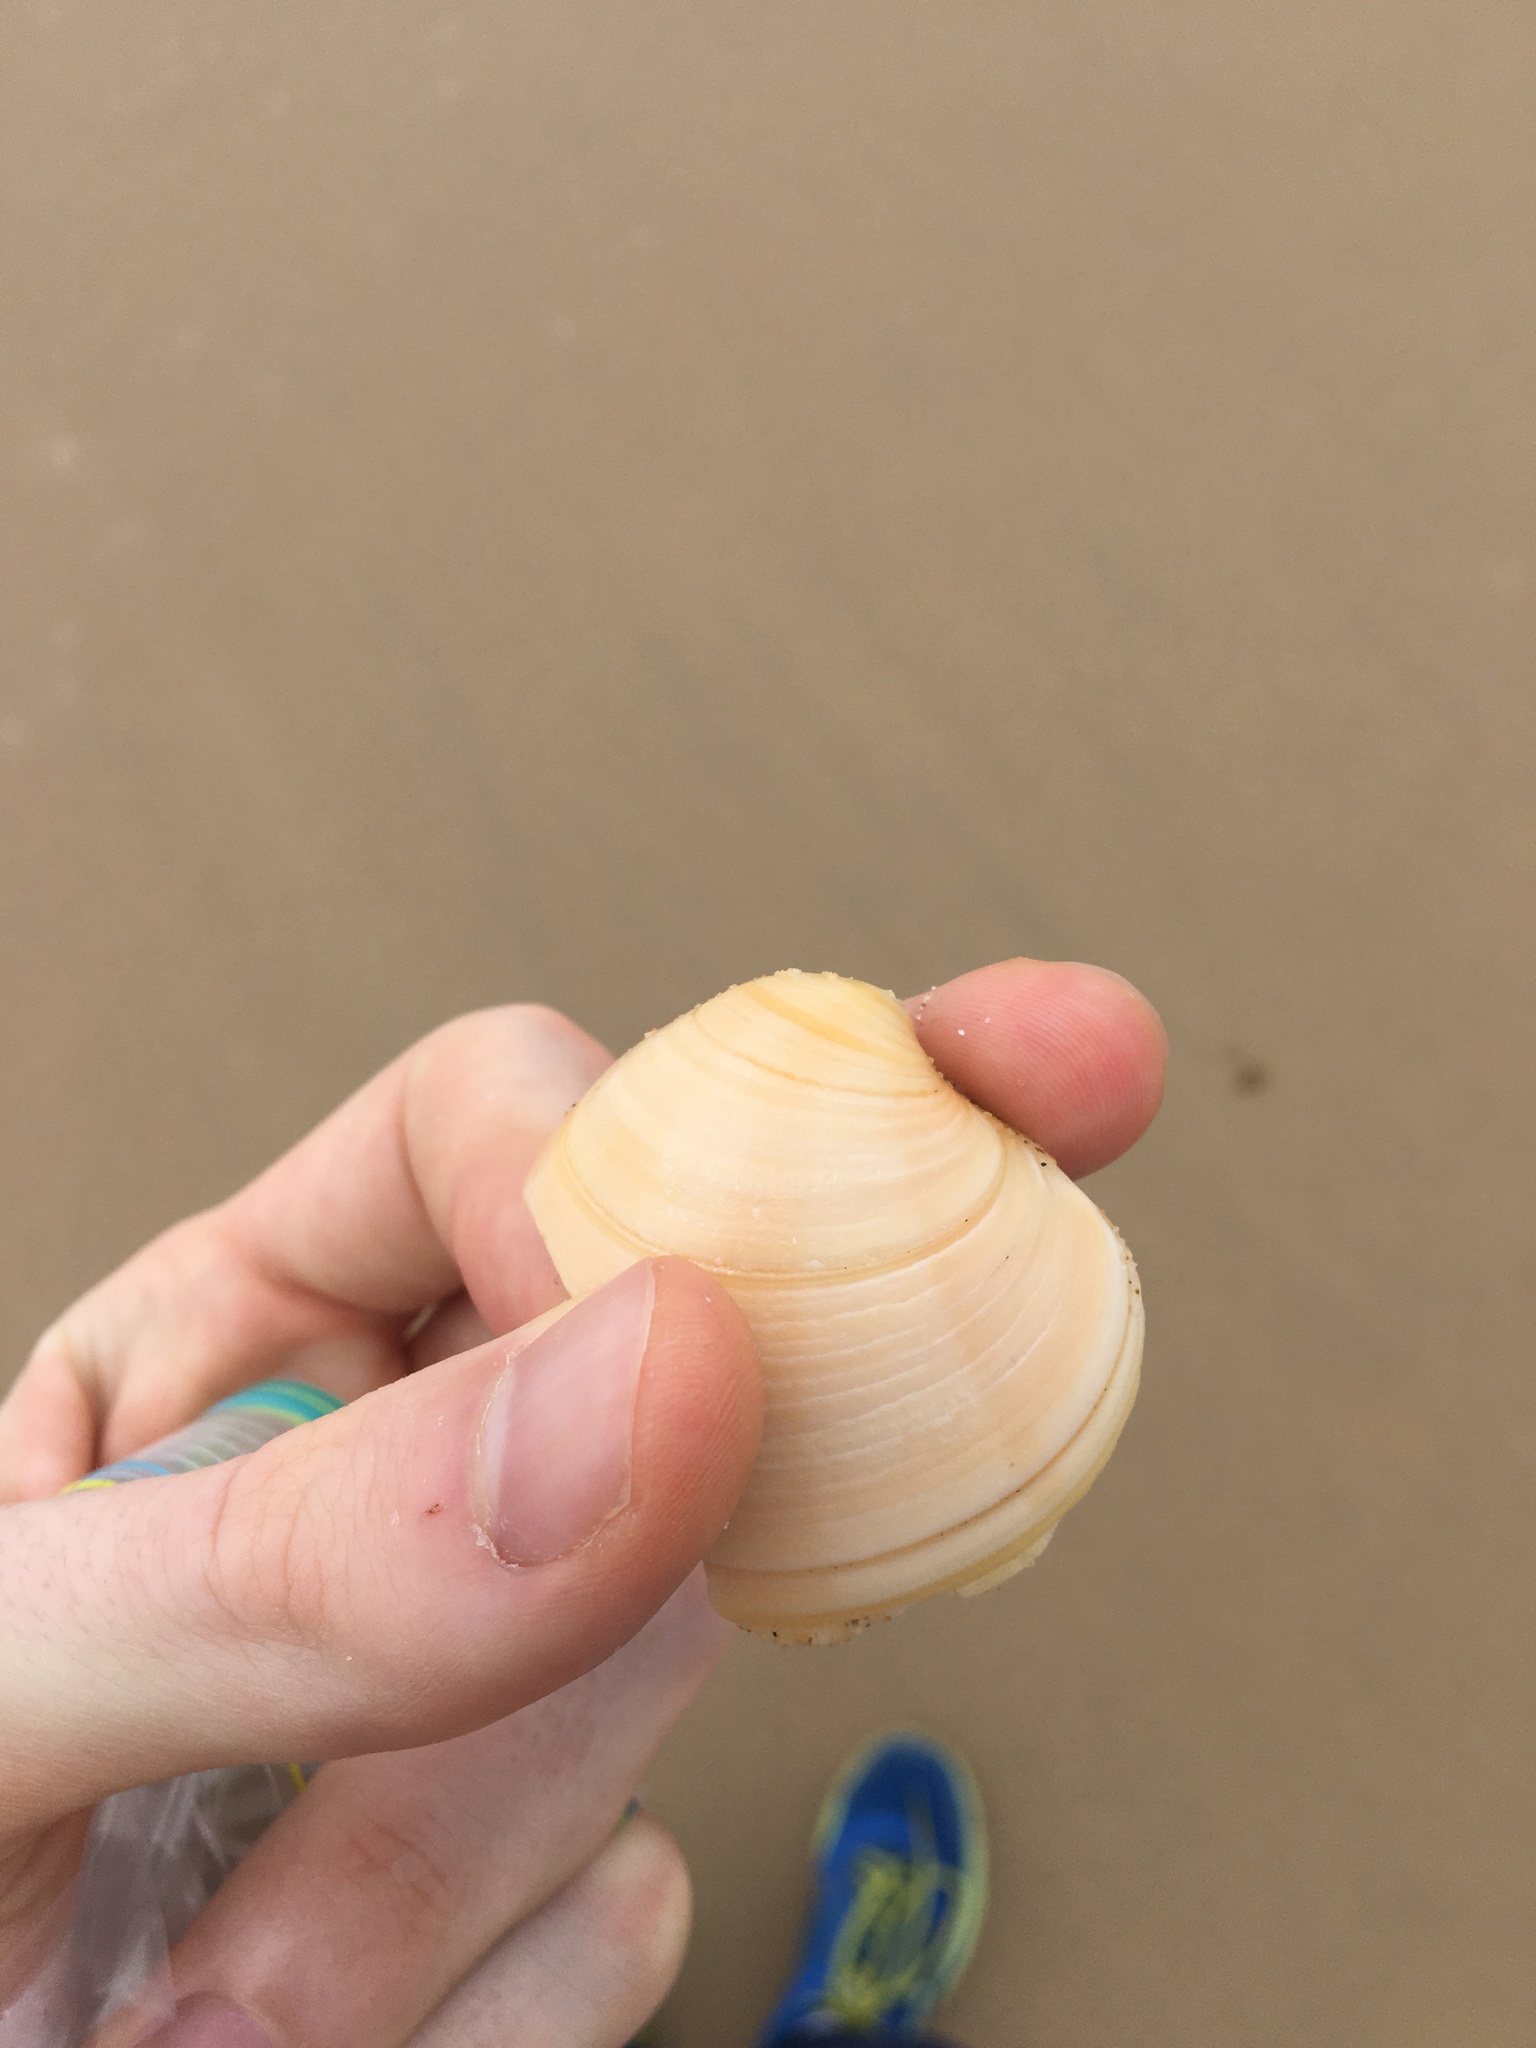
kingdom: Animalia
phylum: Mollusca
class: Bivalvia
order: Venerida
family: Veneridae
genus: Bassina
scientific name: Bassina pachyphylla
